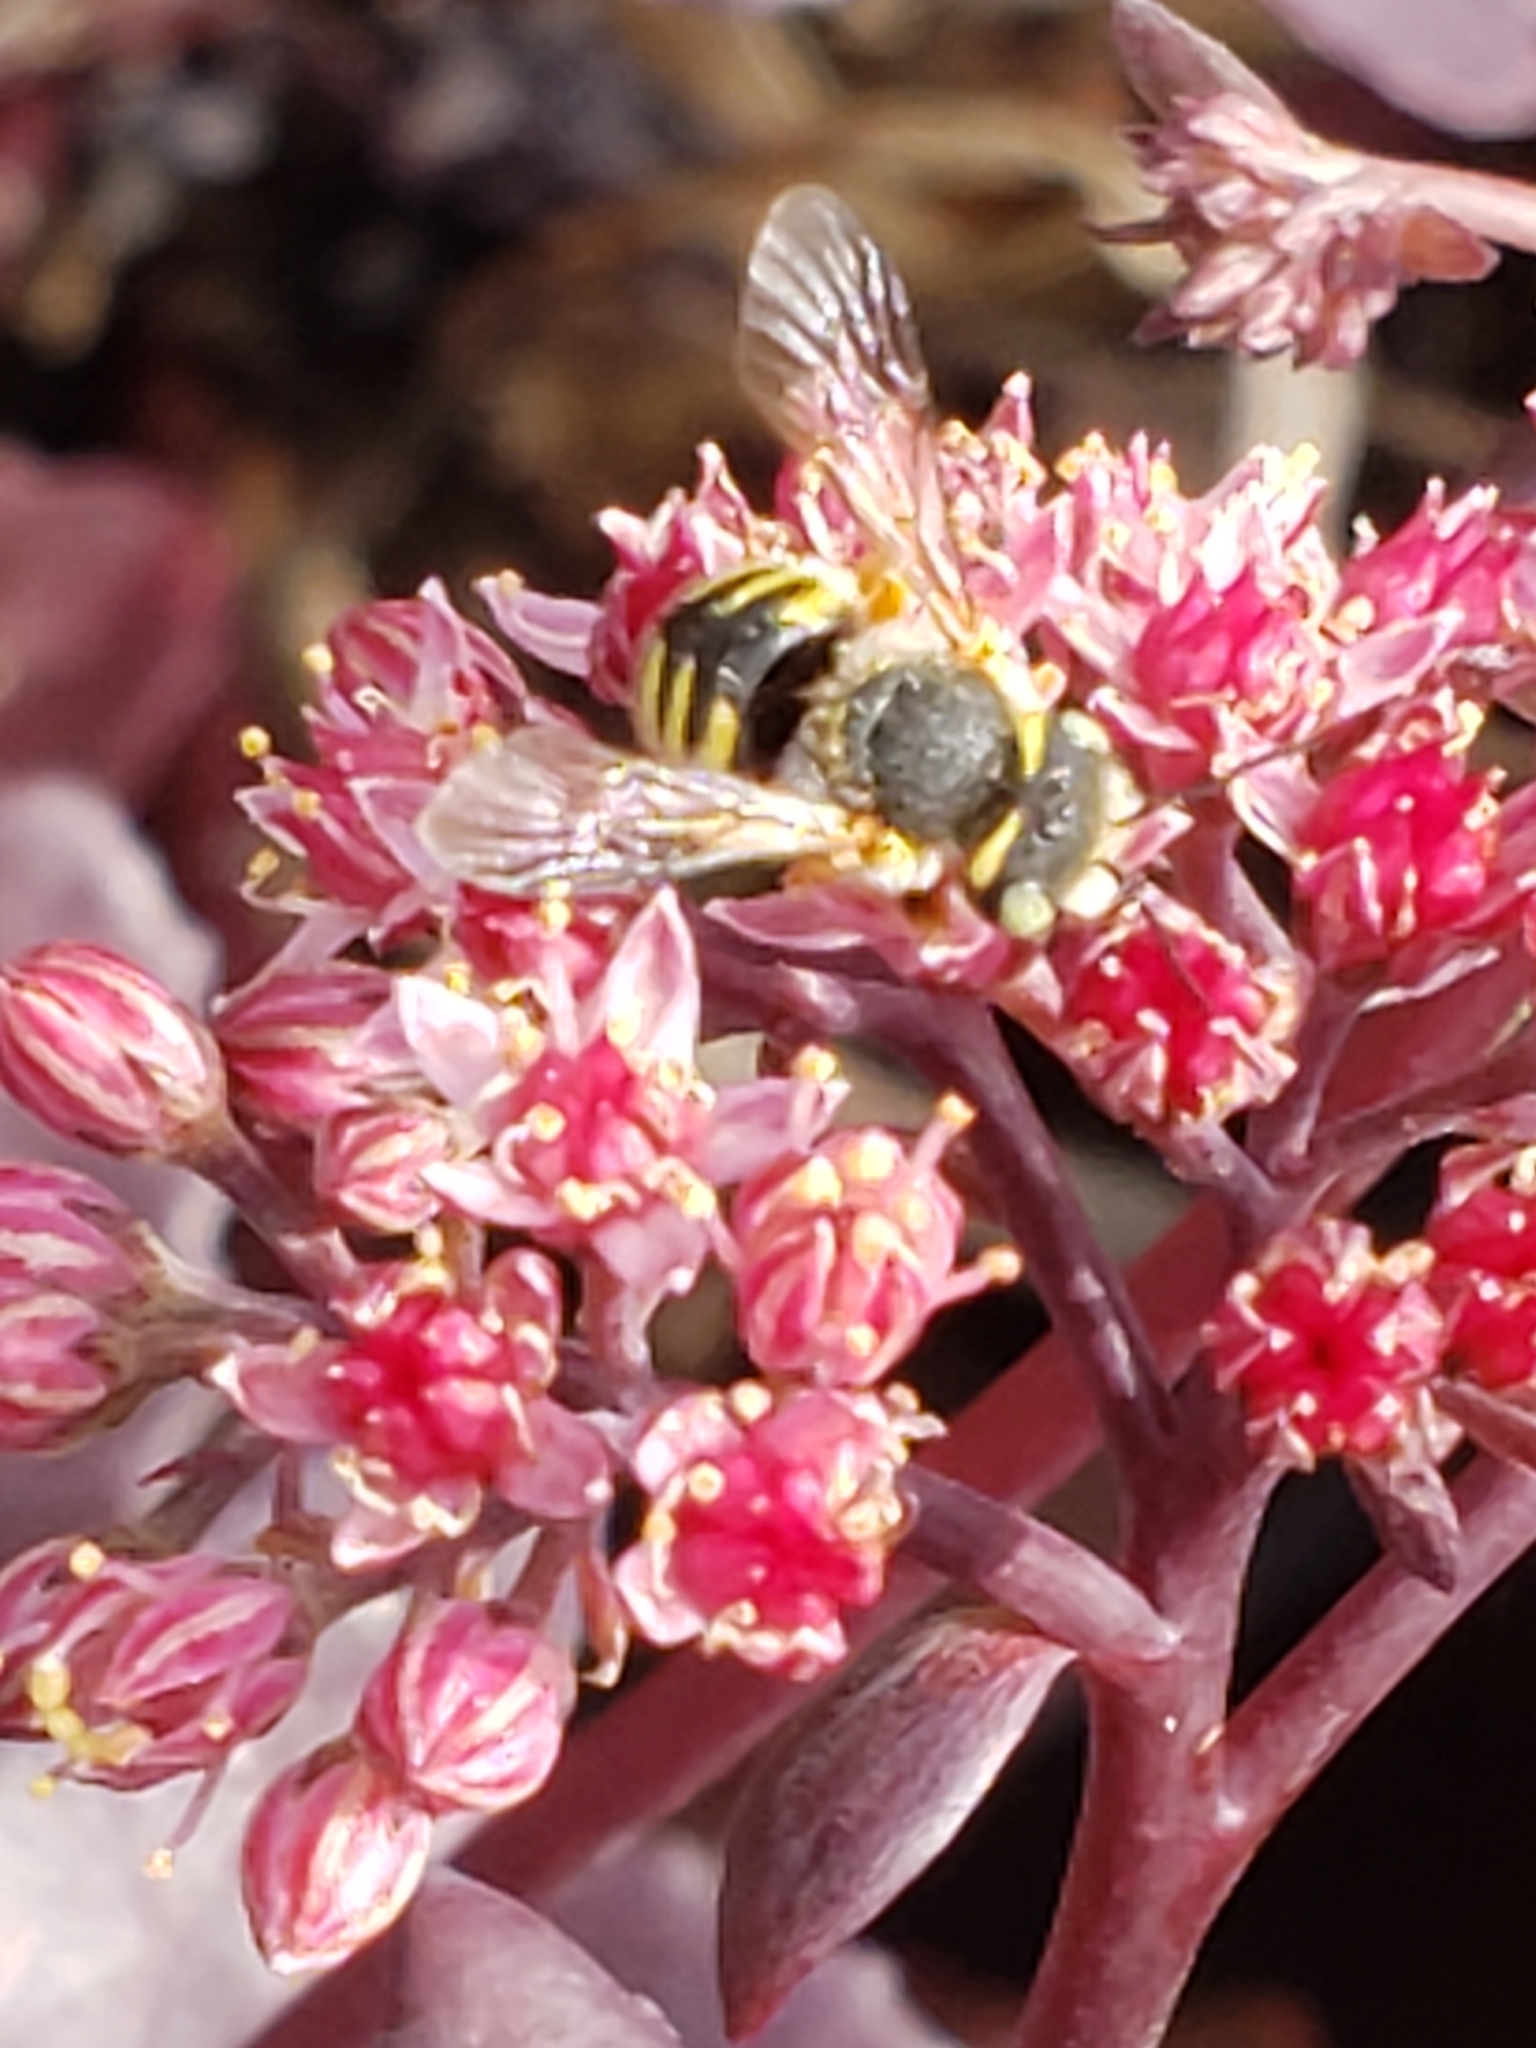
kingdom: Animalia
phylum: Arthropoda
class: Insecta
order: Hymenoptera
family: Megachilidae
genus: Anthidium
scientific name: Anthidium oblongatum
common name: Oblong wool carder bee
